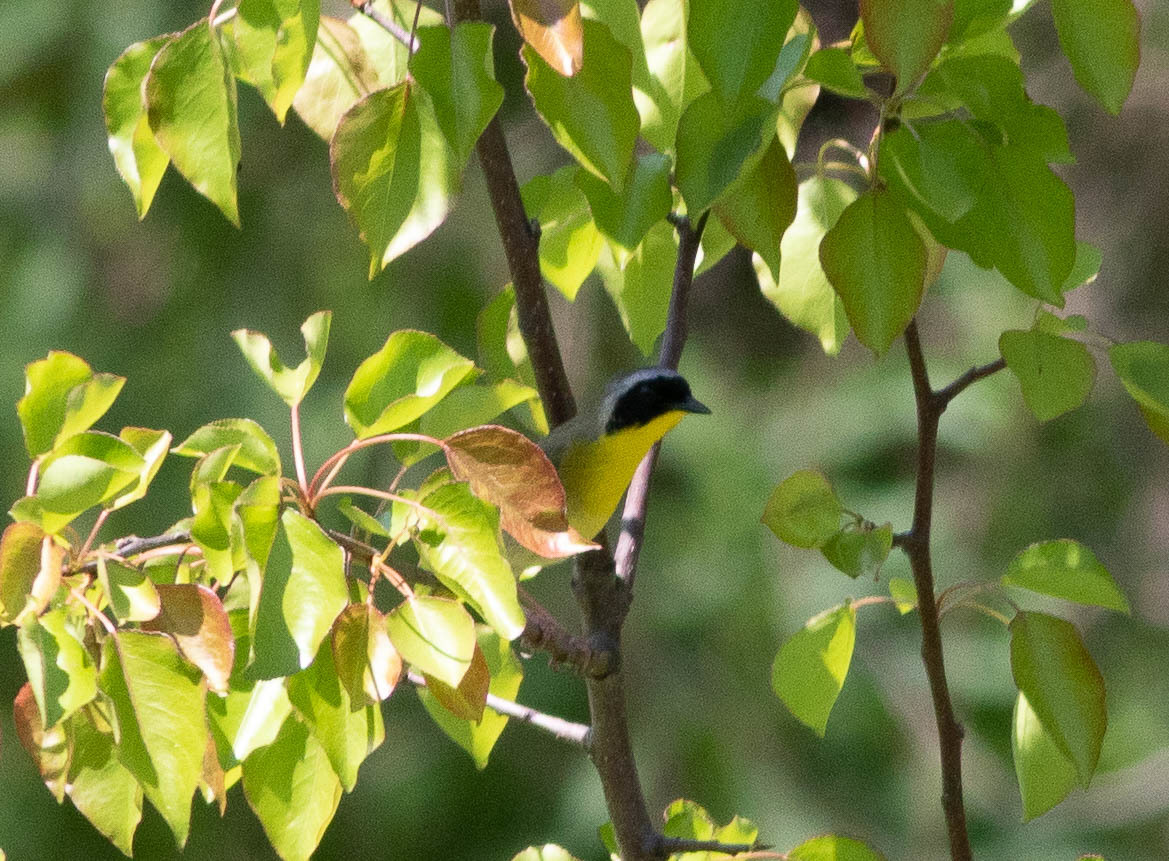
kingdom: Animalia
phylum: Chordata
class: Aves
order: Passeriformes
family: Parulidae
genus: Geothlypis
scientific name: Geothlypis trichas
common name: Common yellowthroat
